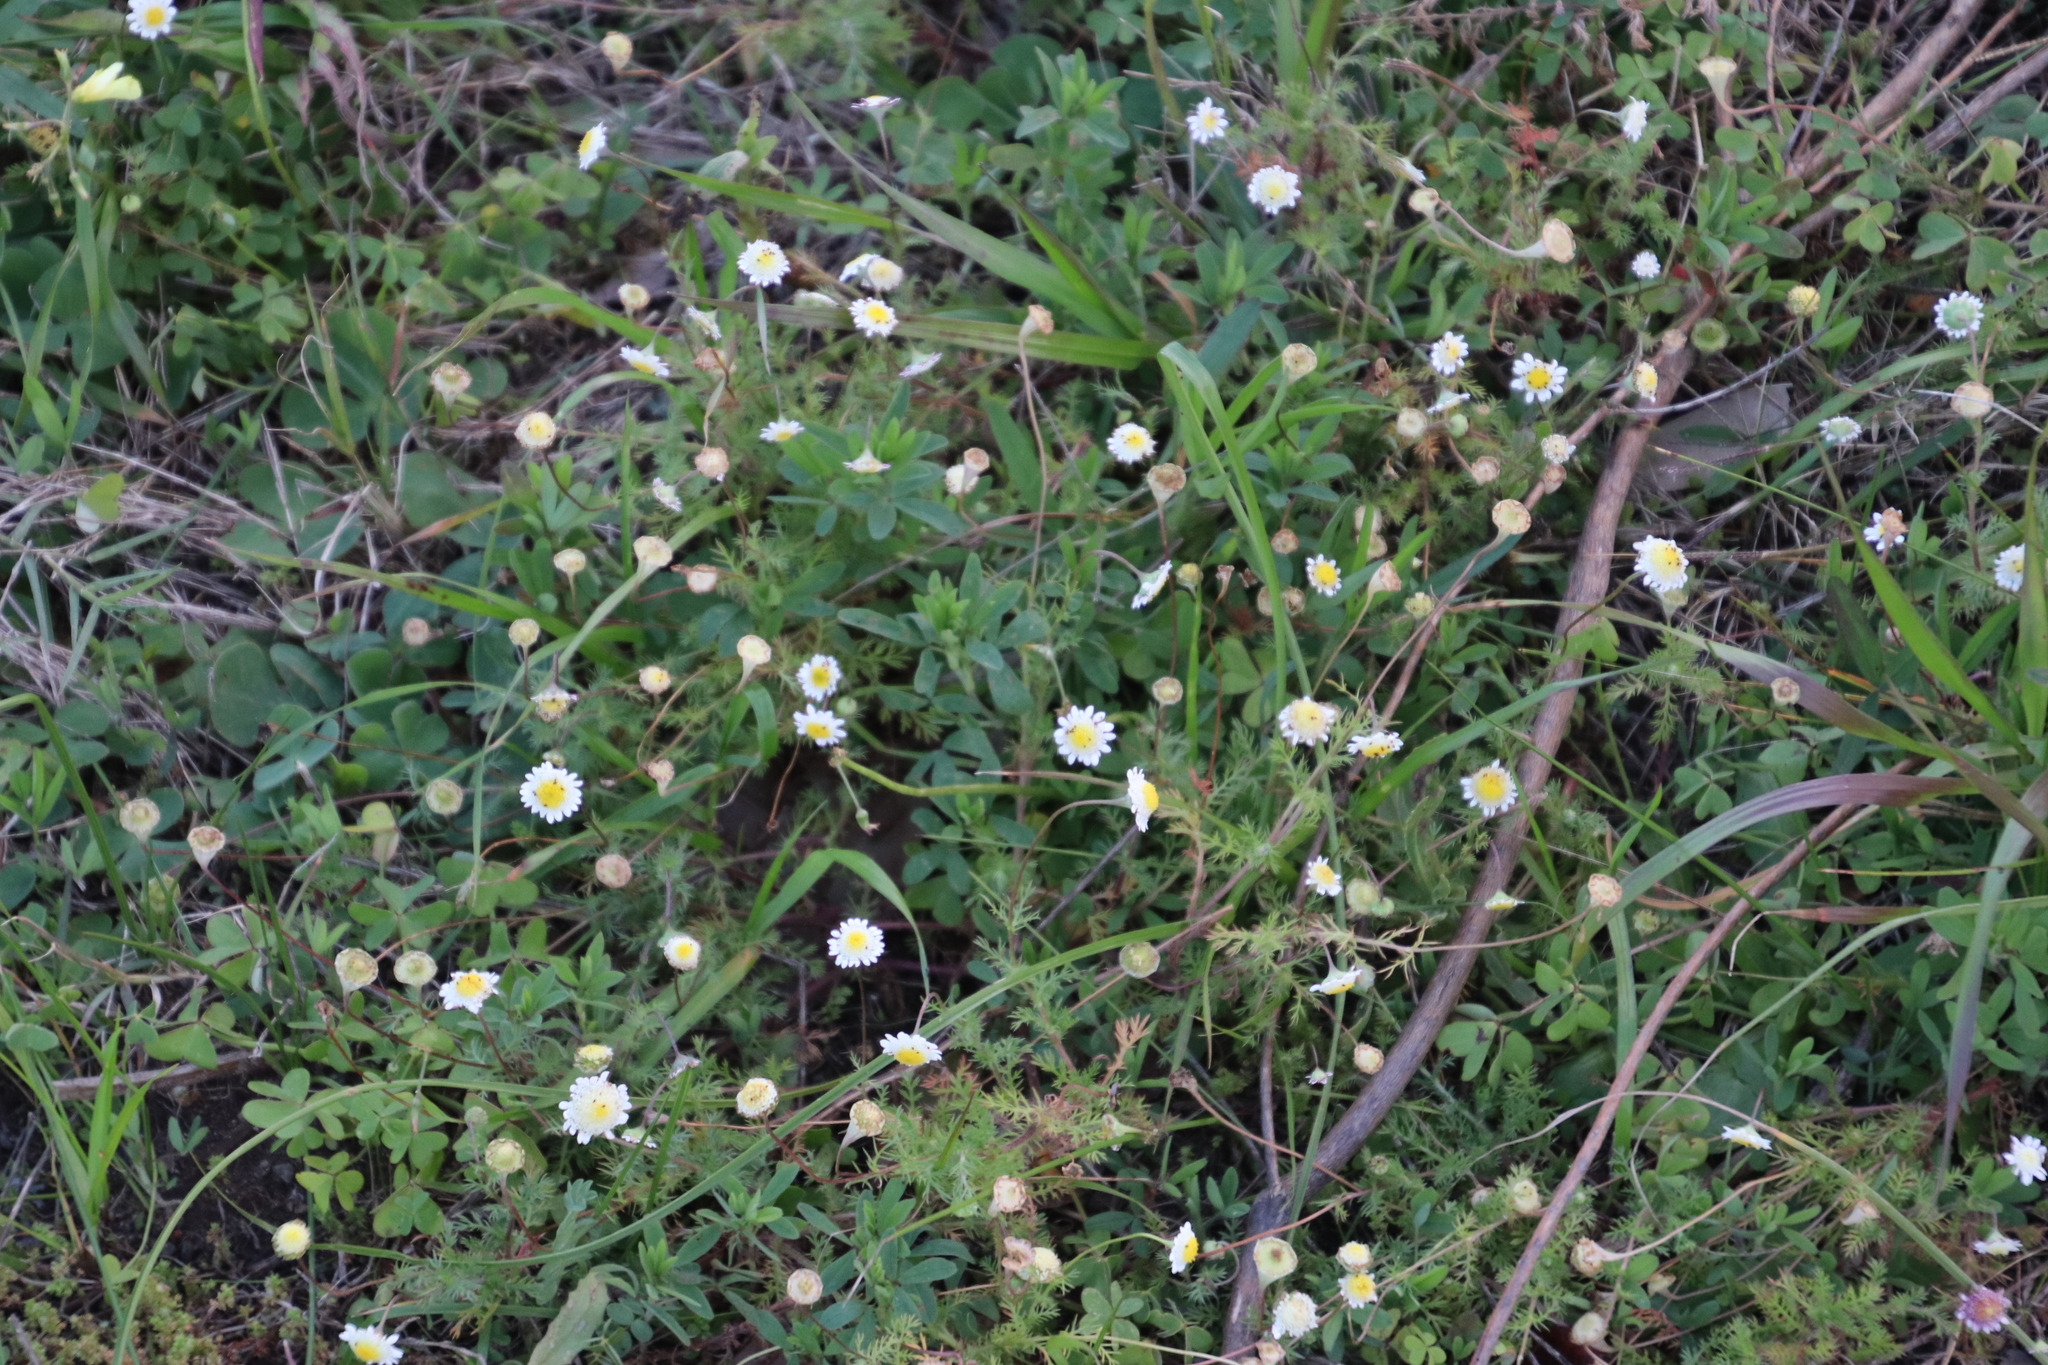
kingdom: Plantae
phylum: Tracheophyta
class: Magnoliopsida
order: Asterales
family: Asteraceae
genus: Cotula
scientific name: Cotula turbinata
